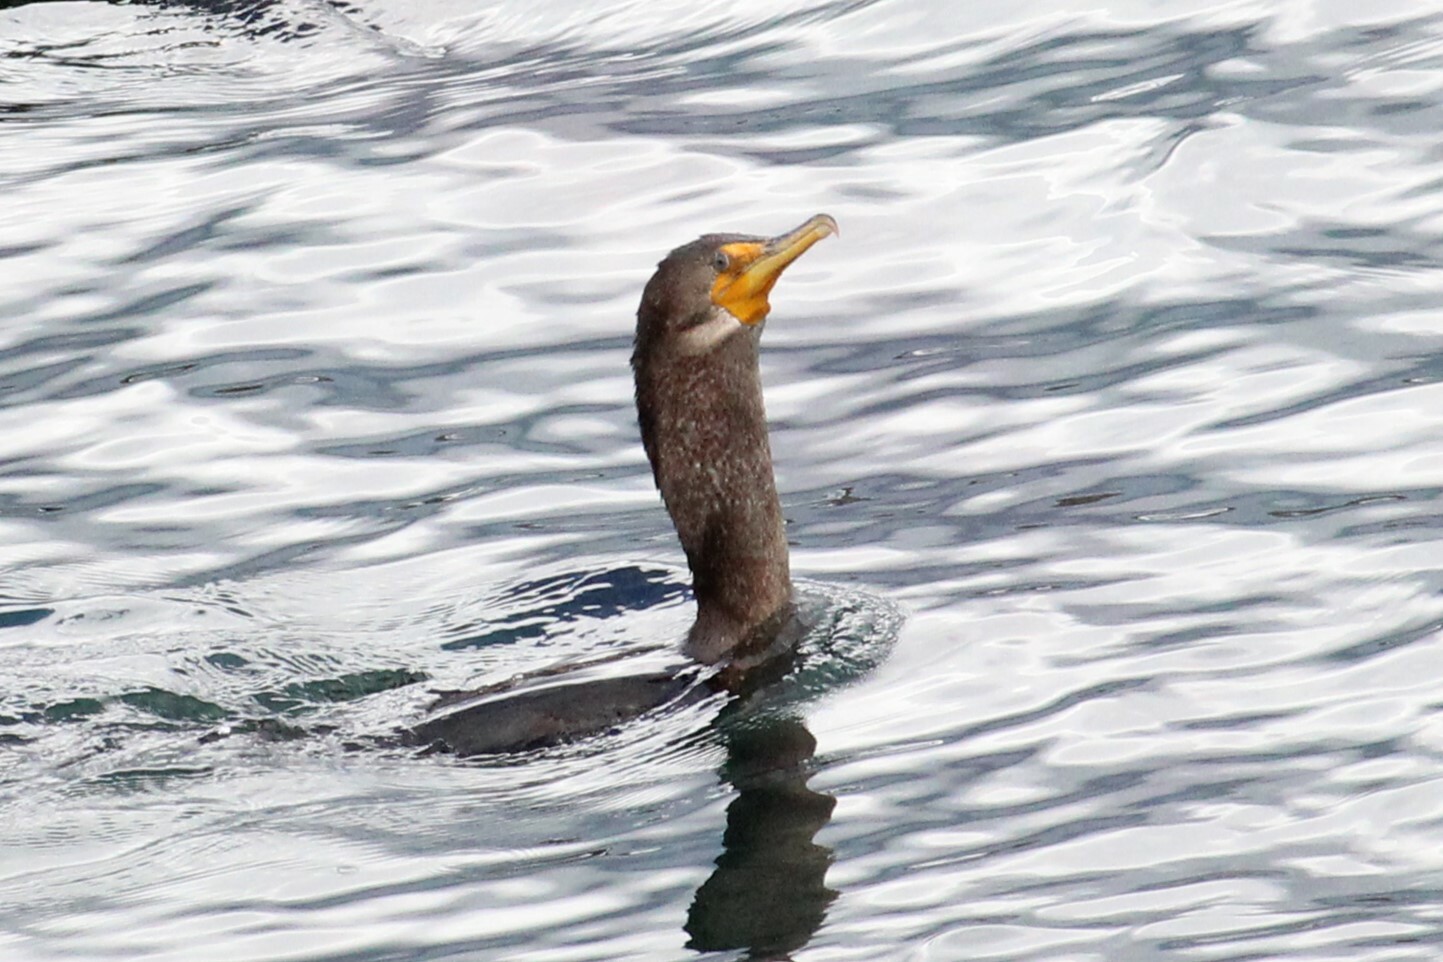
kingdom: Animalia
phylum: Chordata
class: Aves
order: Passeriformes
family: Passerellidae
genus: Melospiza
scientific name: Melospiza melodia
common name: Song sparrow
